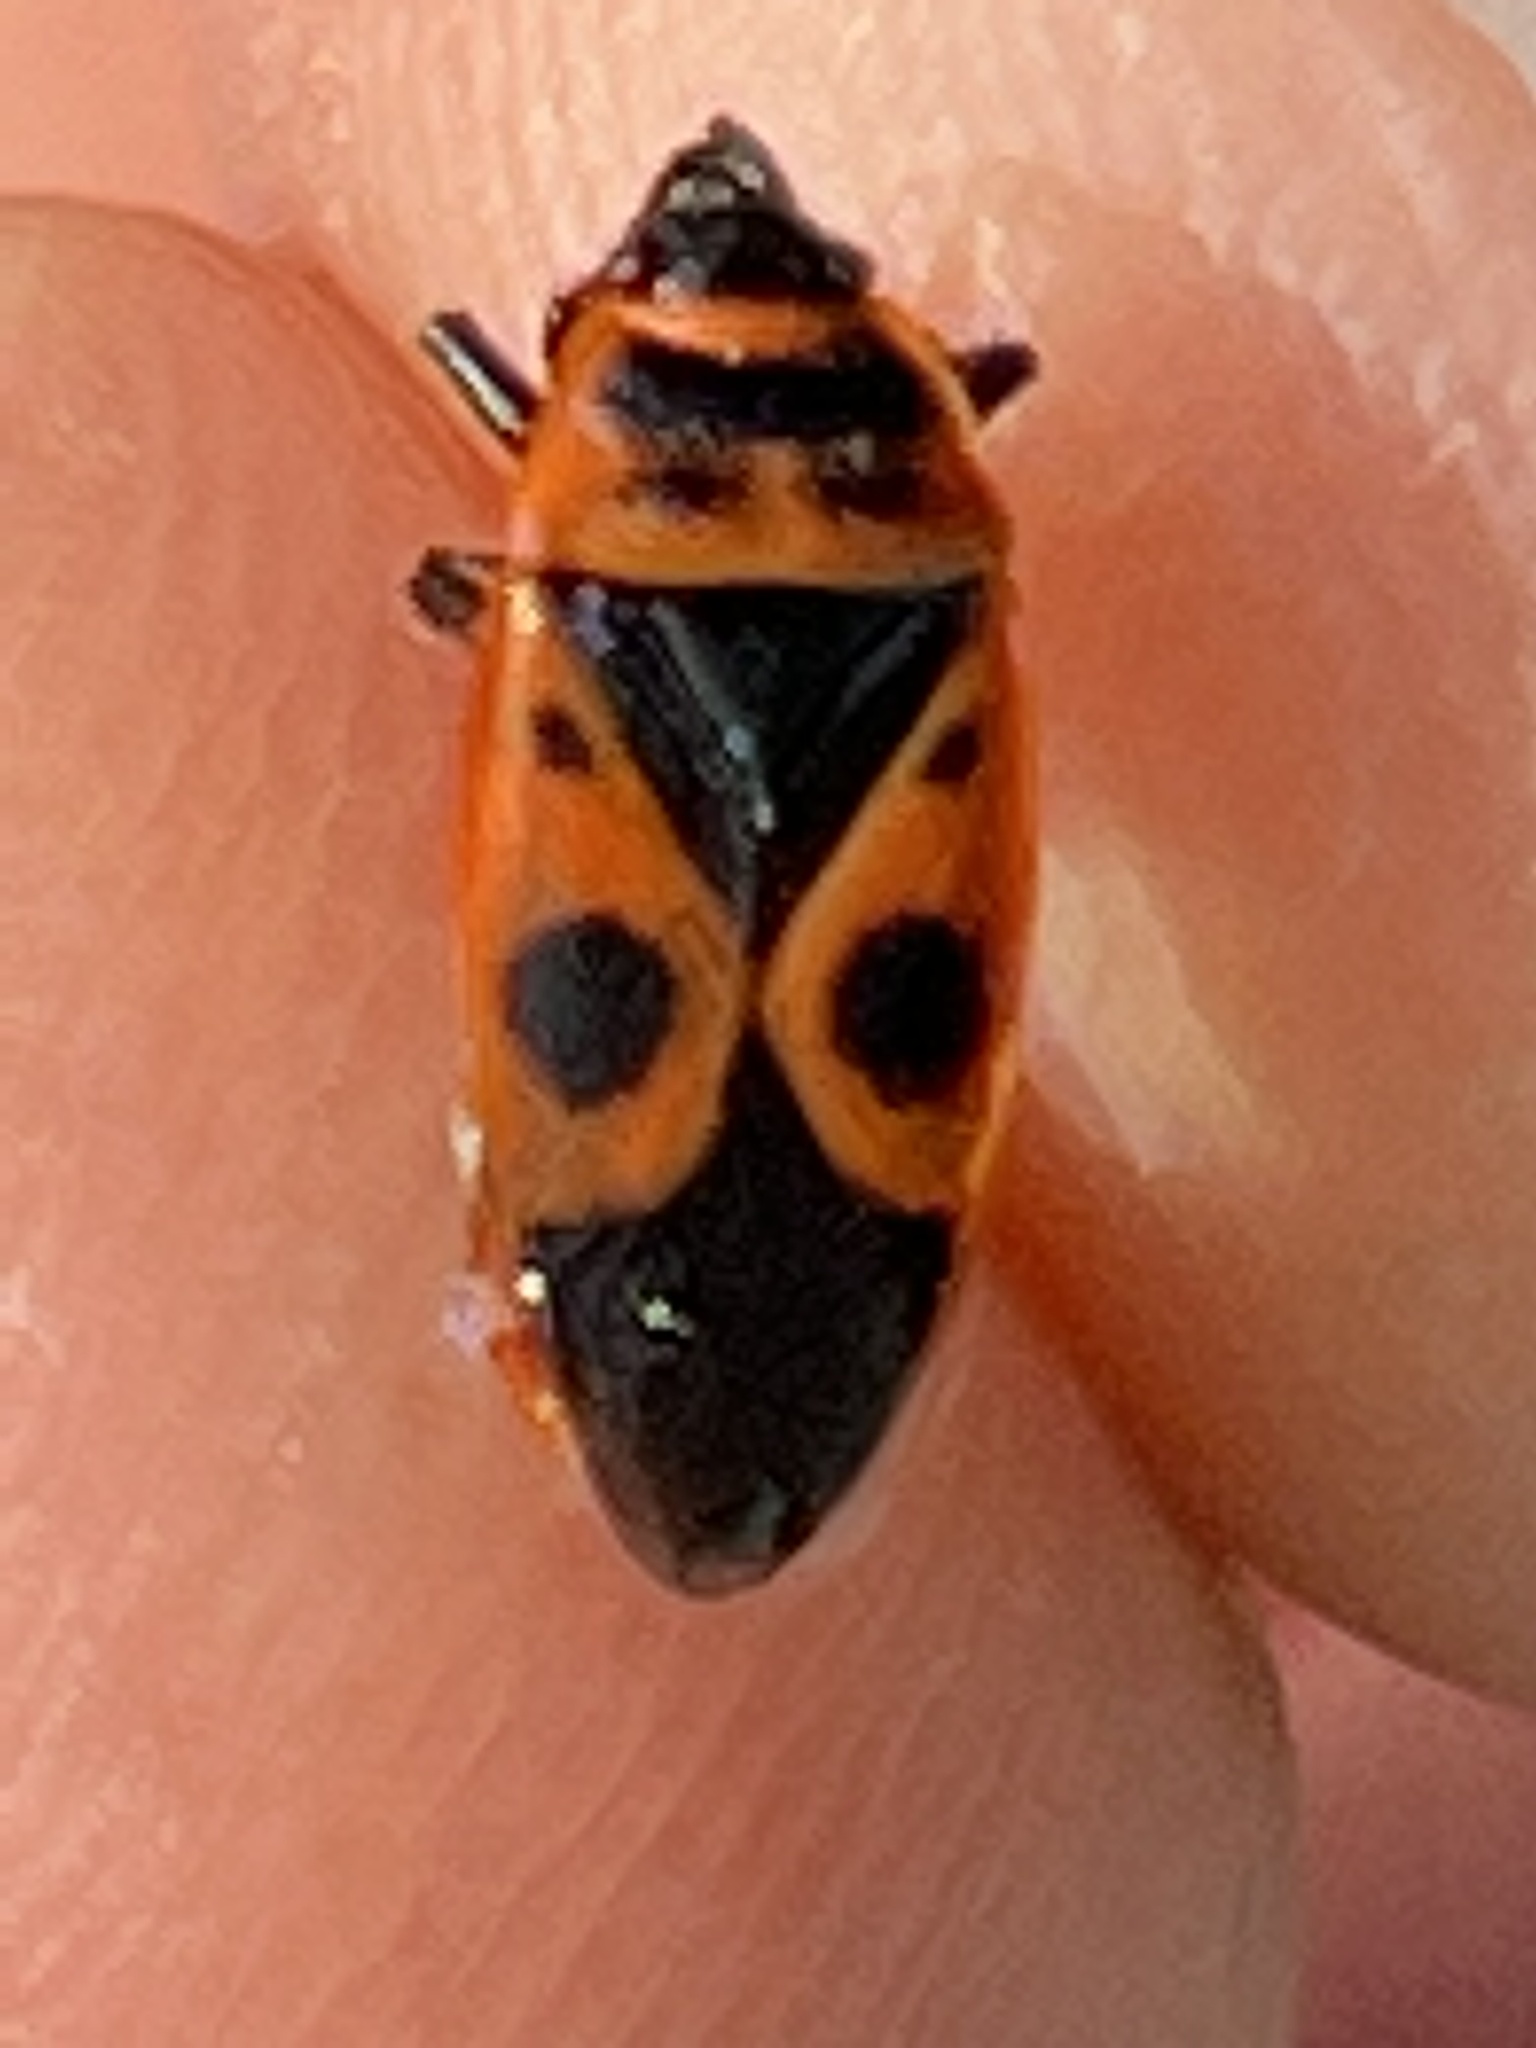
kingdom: Animalia
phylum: Arthropoda
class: Insecta
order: Hemiptera
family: Pyrrhocoridae
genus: Pyrrhocoris
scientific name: Pyrrhocoris apterus
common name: Firebug
